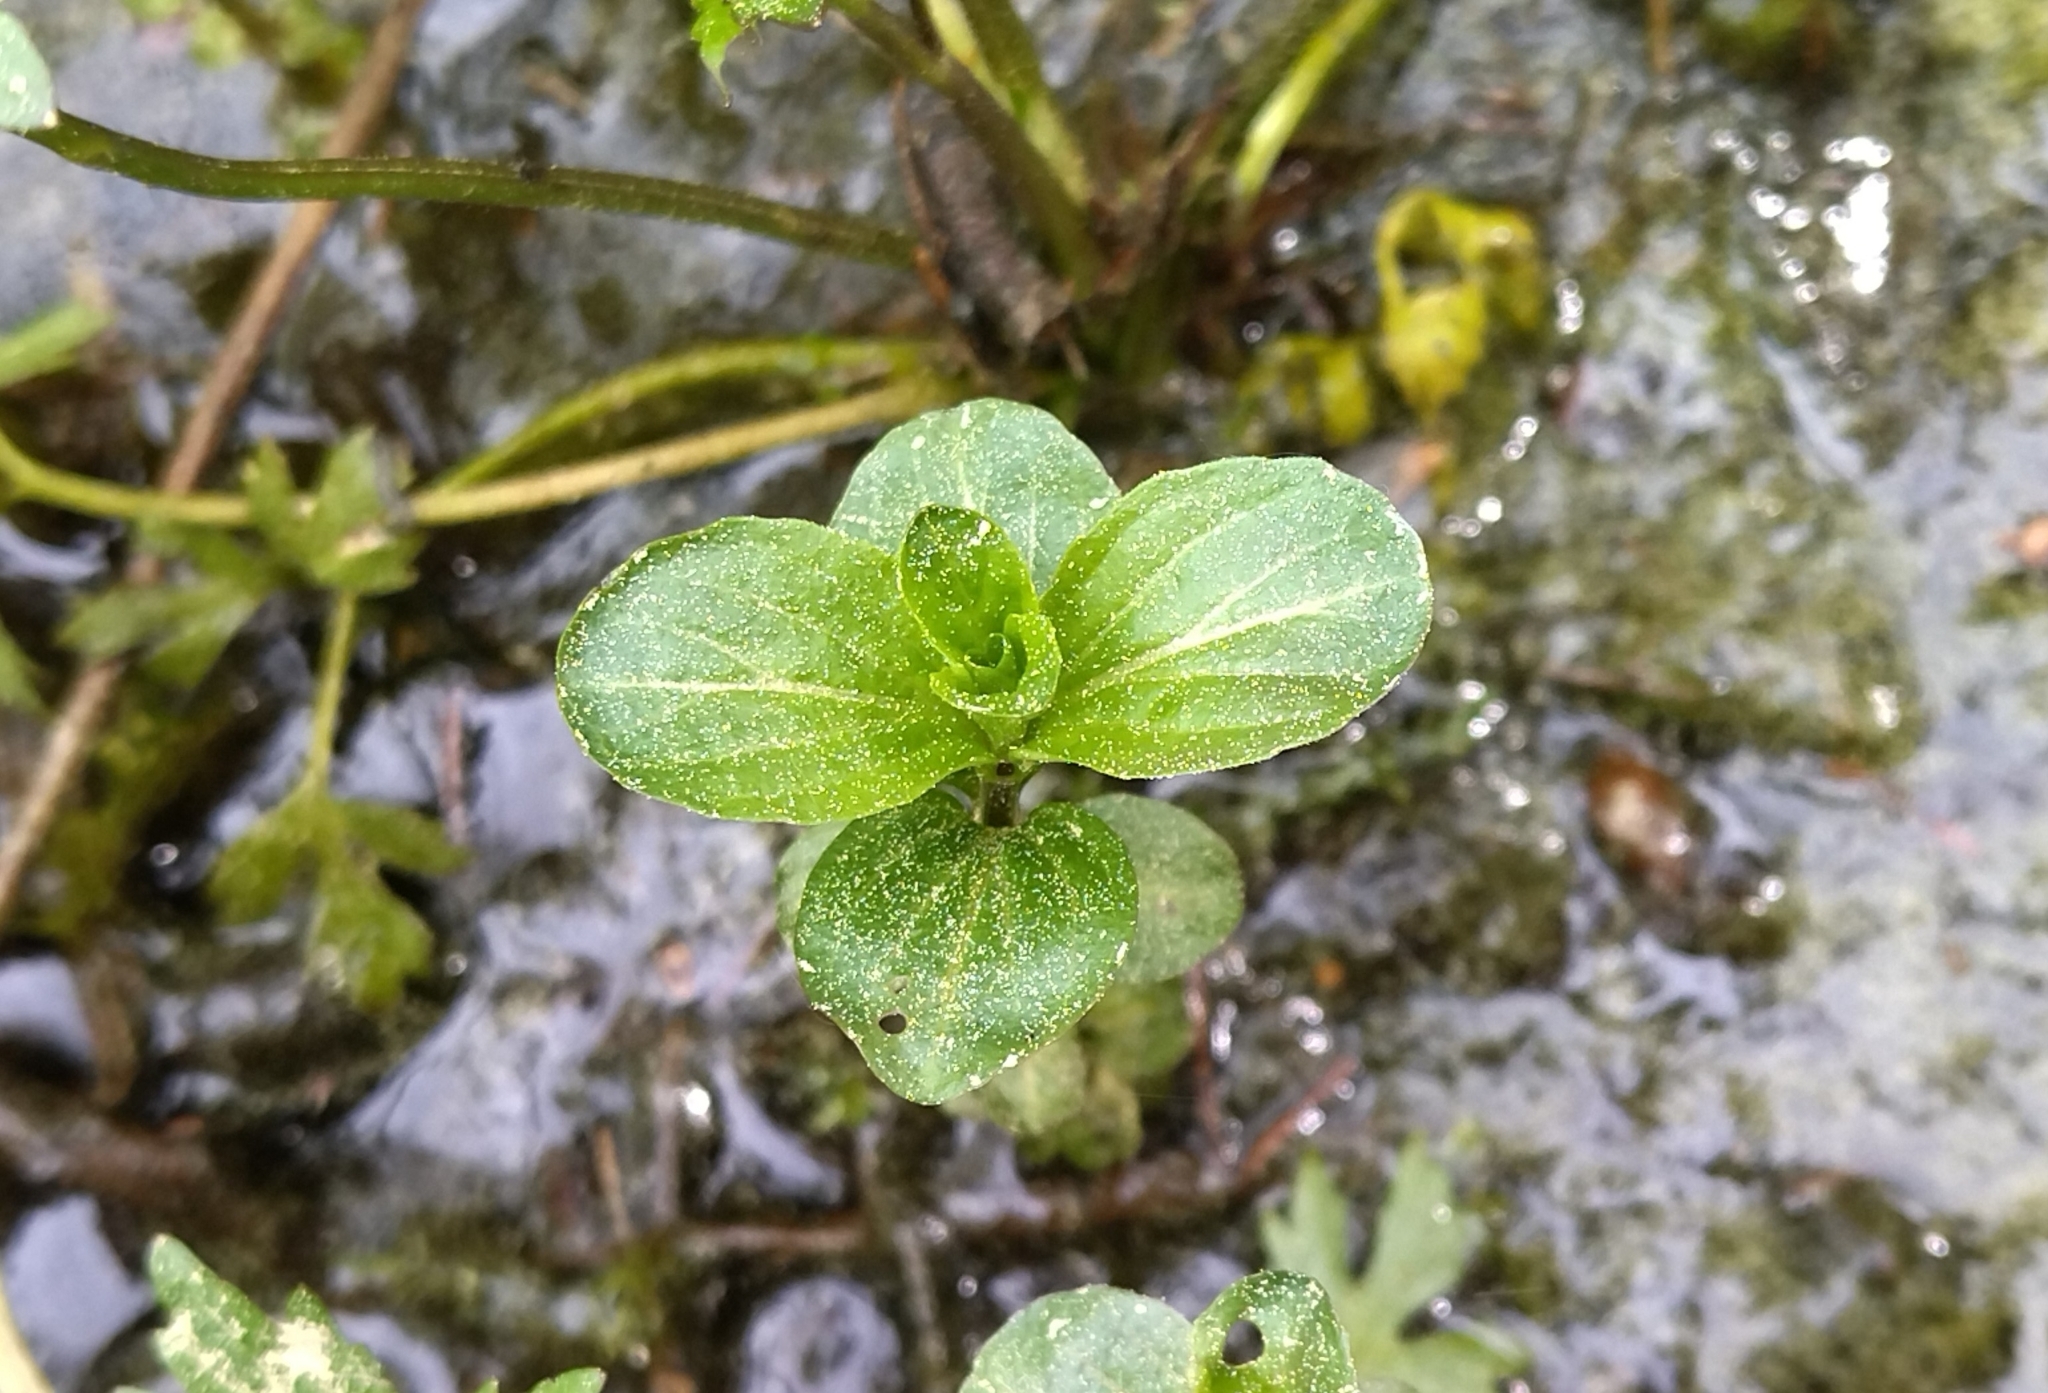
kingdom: Plantae
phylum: Tracheophyta
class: Magnoliopsida
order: Lamiales
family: Plantaginaceae
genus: Veronica
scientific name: Veronica beccabunga
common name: Brooklime
